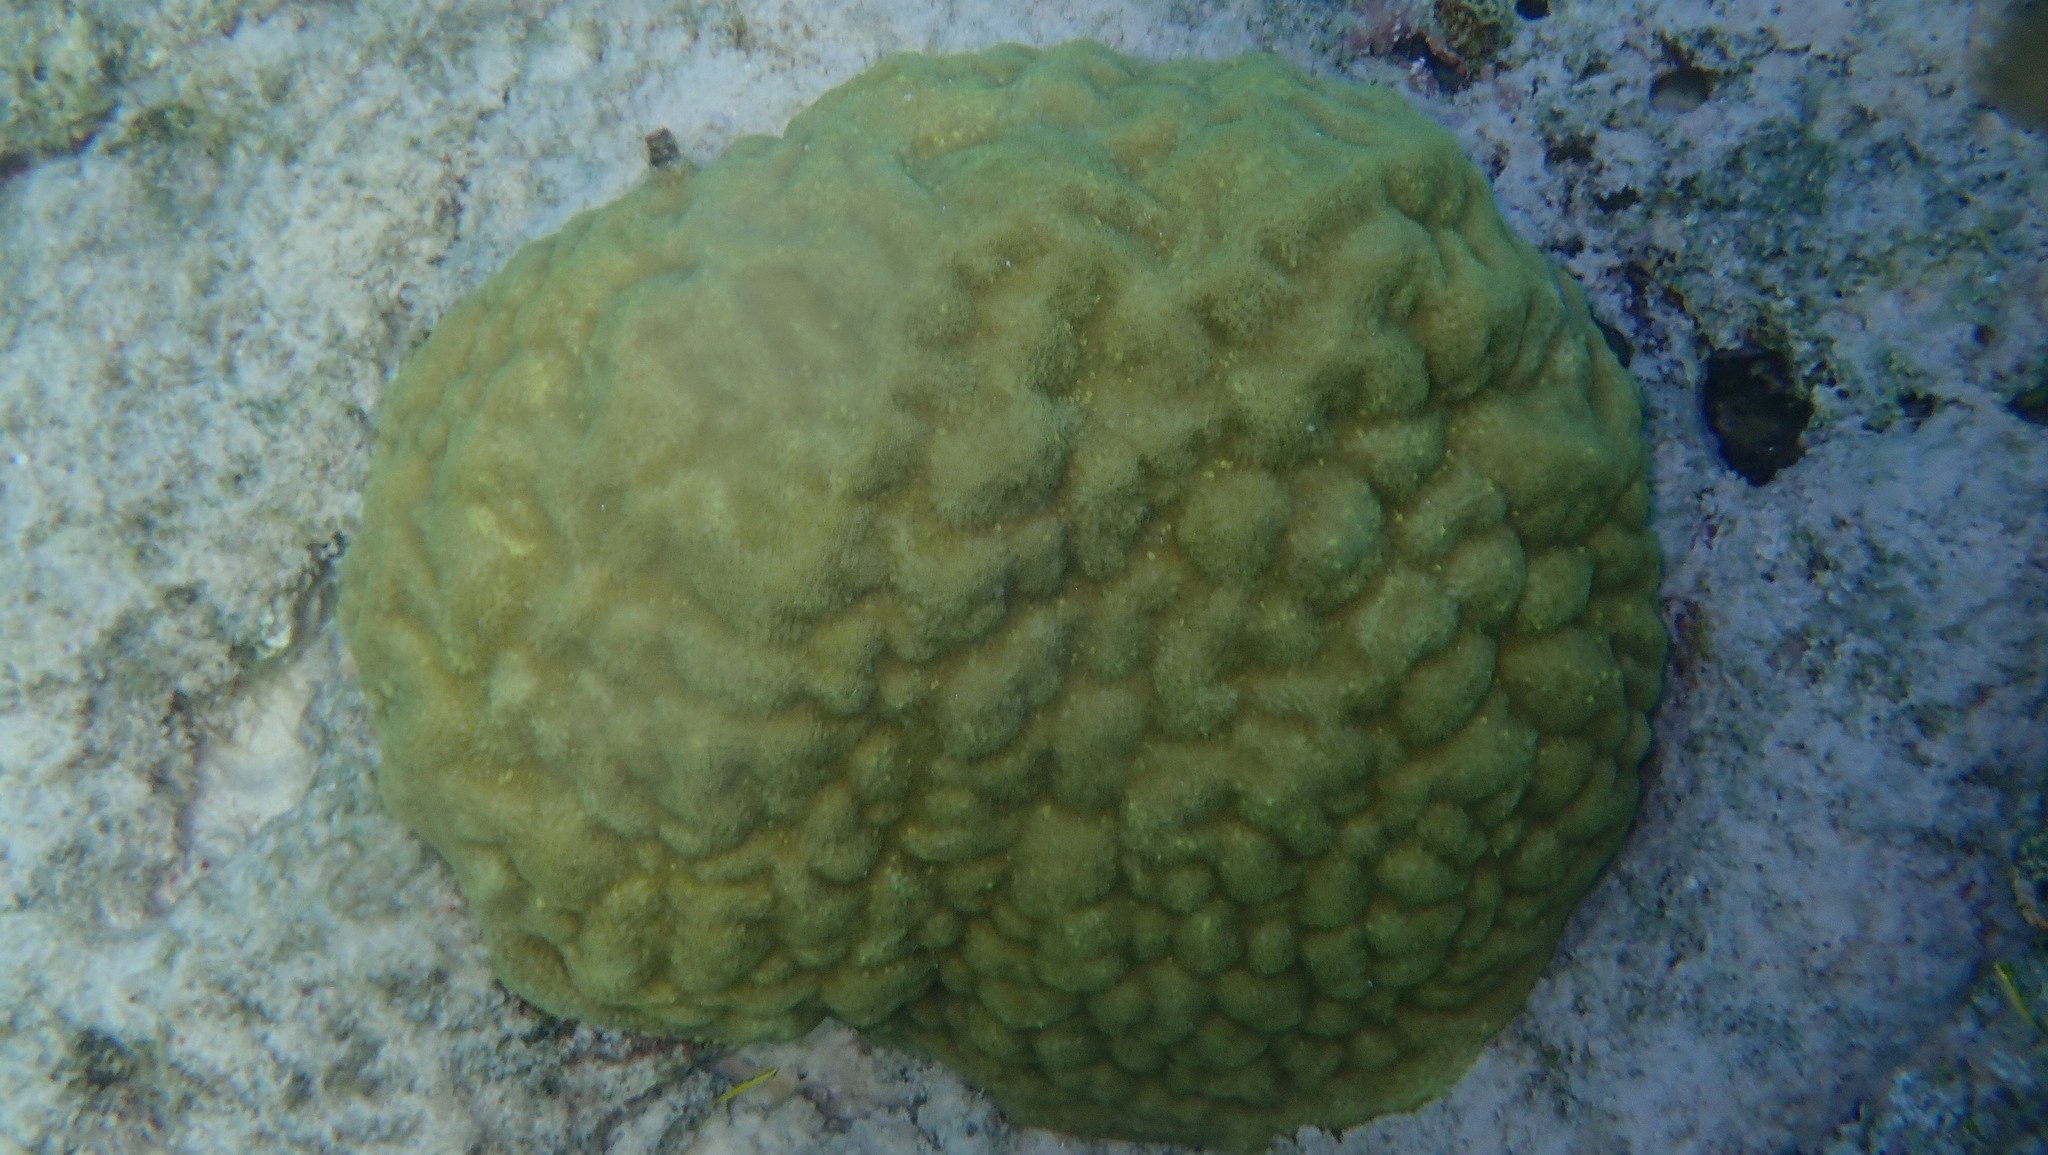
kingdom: Animalia
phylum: Cnidaria
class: Anthozoa
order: Scleractinia
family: Poritidae
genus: Porites
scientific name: Porites astreoides
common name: Mustard hill coral
